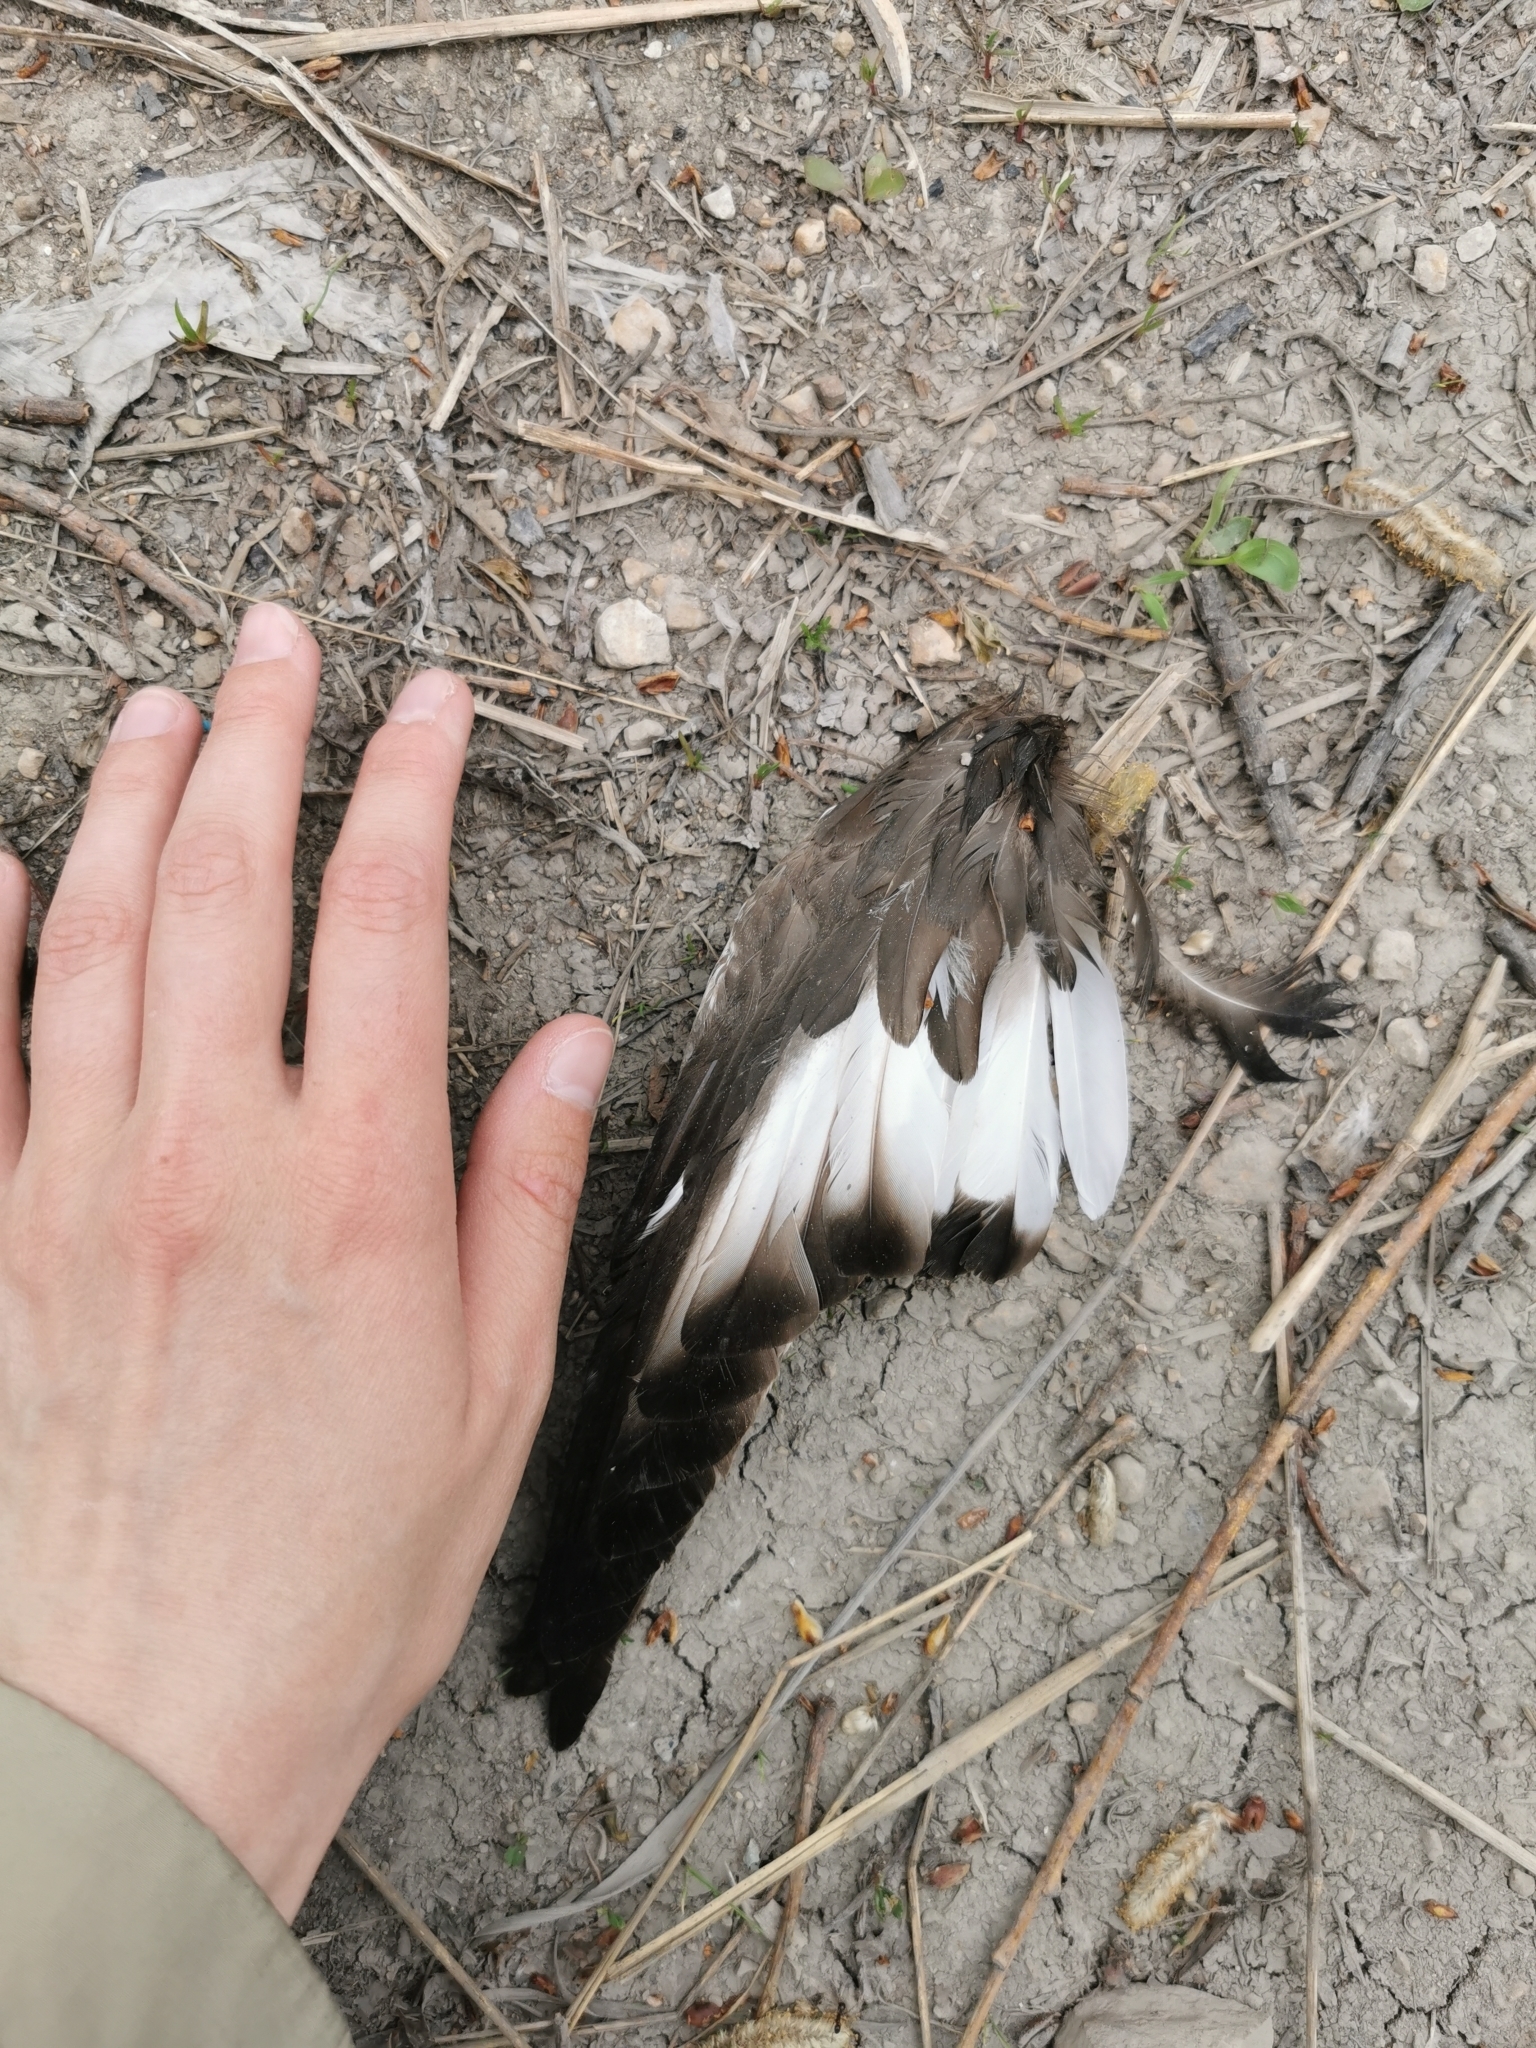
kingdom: Animalia
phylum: Chordata
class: Aves
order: Anseriformes
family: Anatidae
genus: Mareca
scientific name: Mareca penelope
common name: Eurasian wigeon
